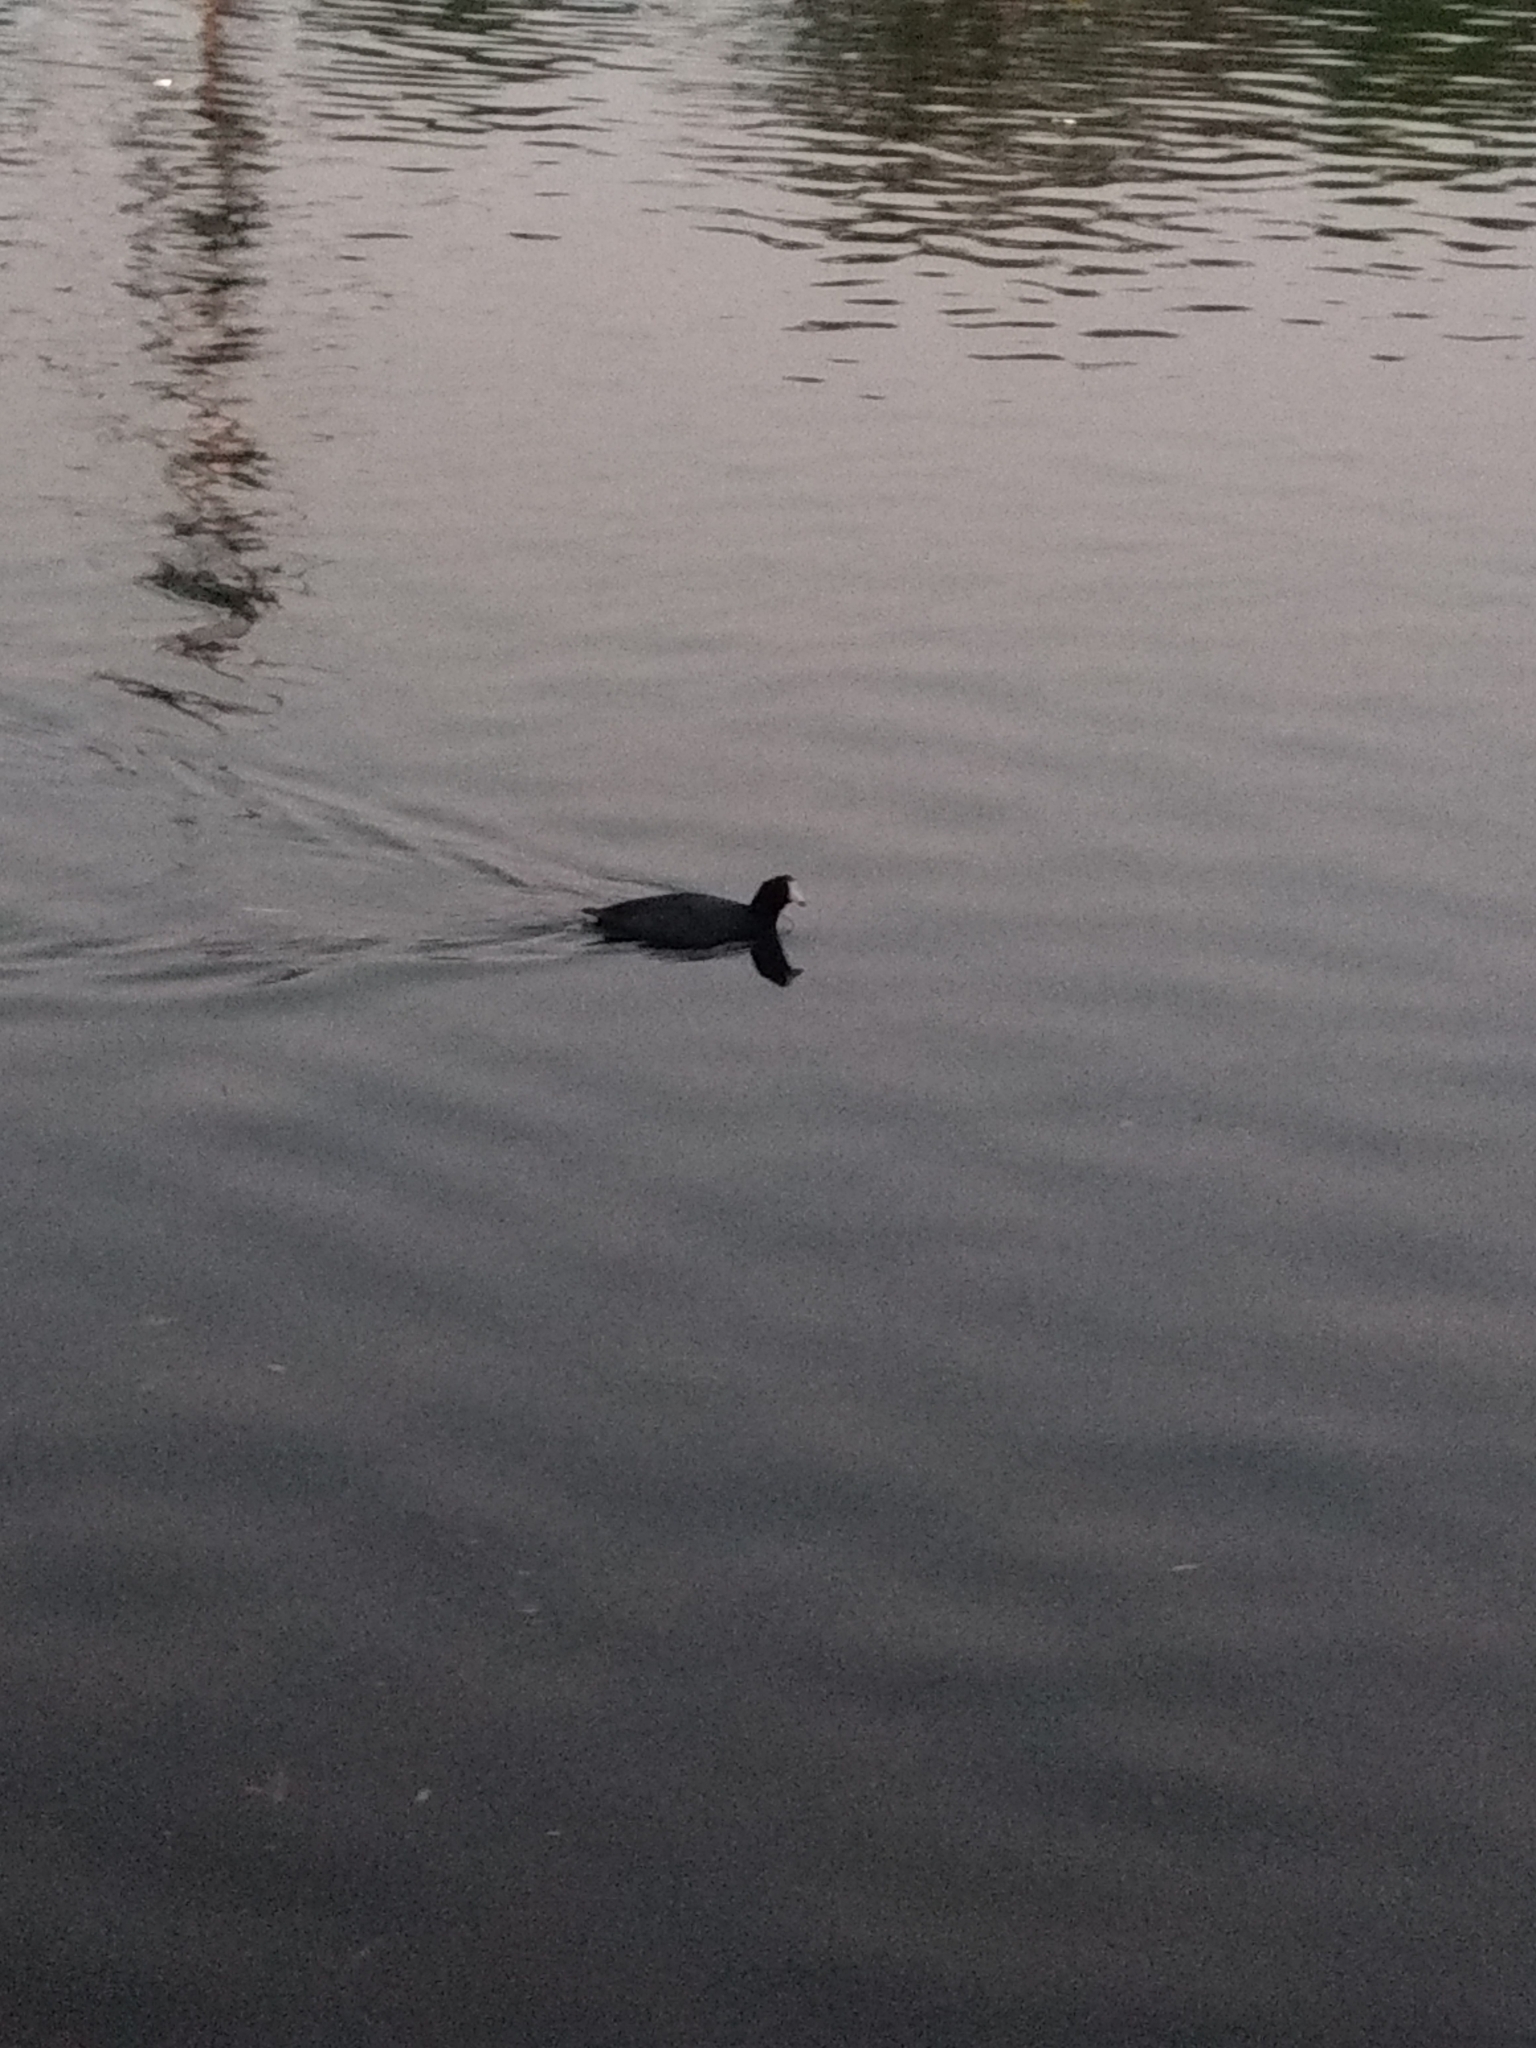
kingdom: Animalia
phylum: Chordata
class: Aves
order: Gruiformes
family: Rallidae
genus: Fulica
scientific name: Fulica americana
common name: American coot
